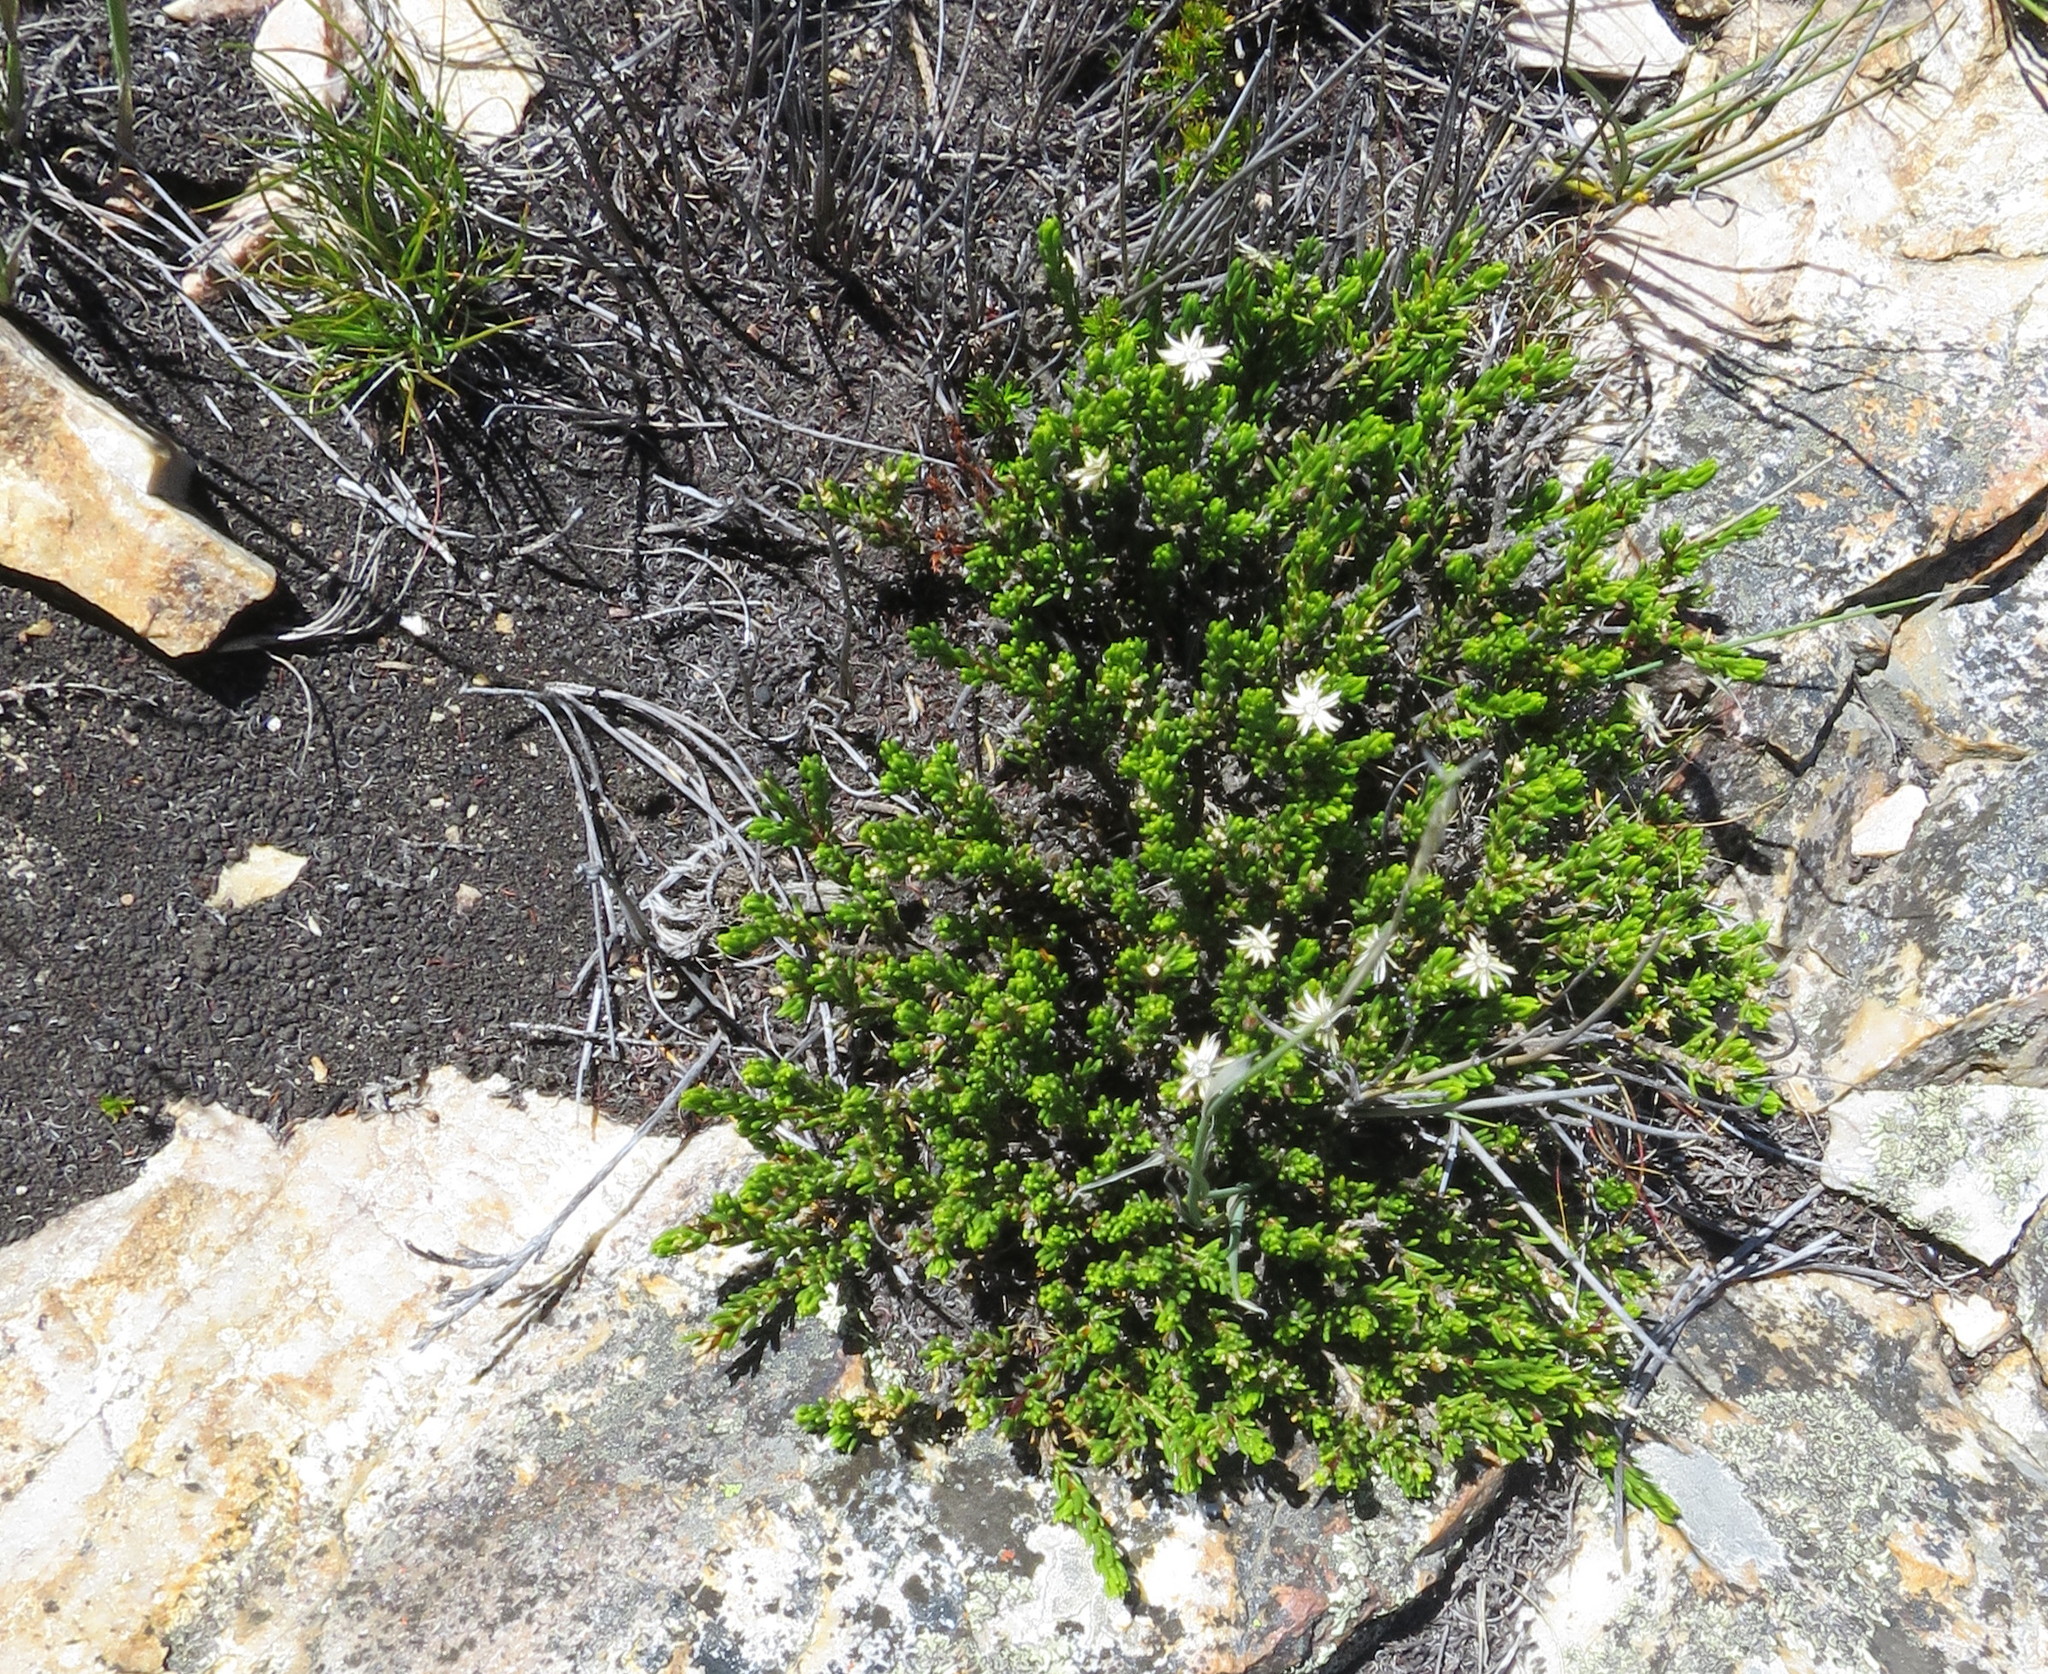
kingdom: Plantae
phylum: Tracheophyta
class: Magnoliopsida
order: Asterales
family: Asteraceae
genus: Felicia
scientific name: Felicia oleosa
